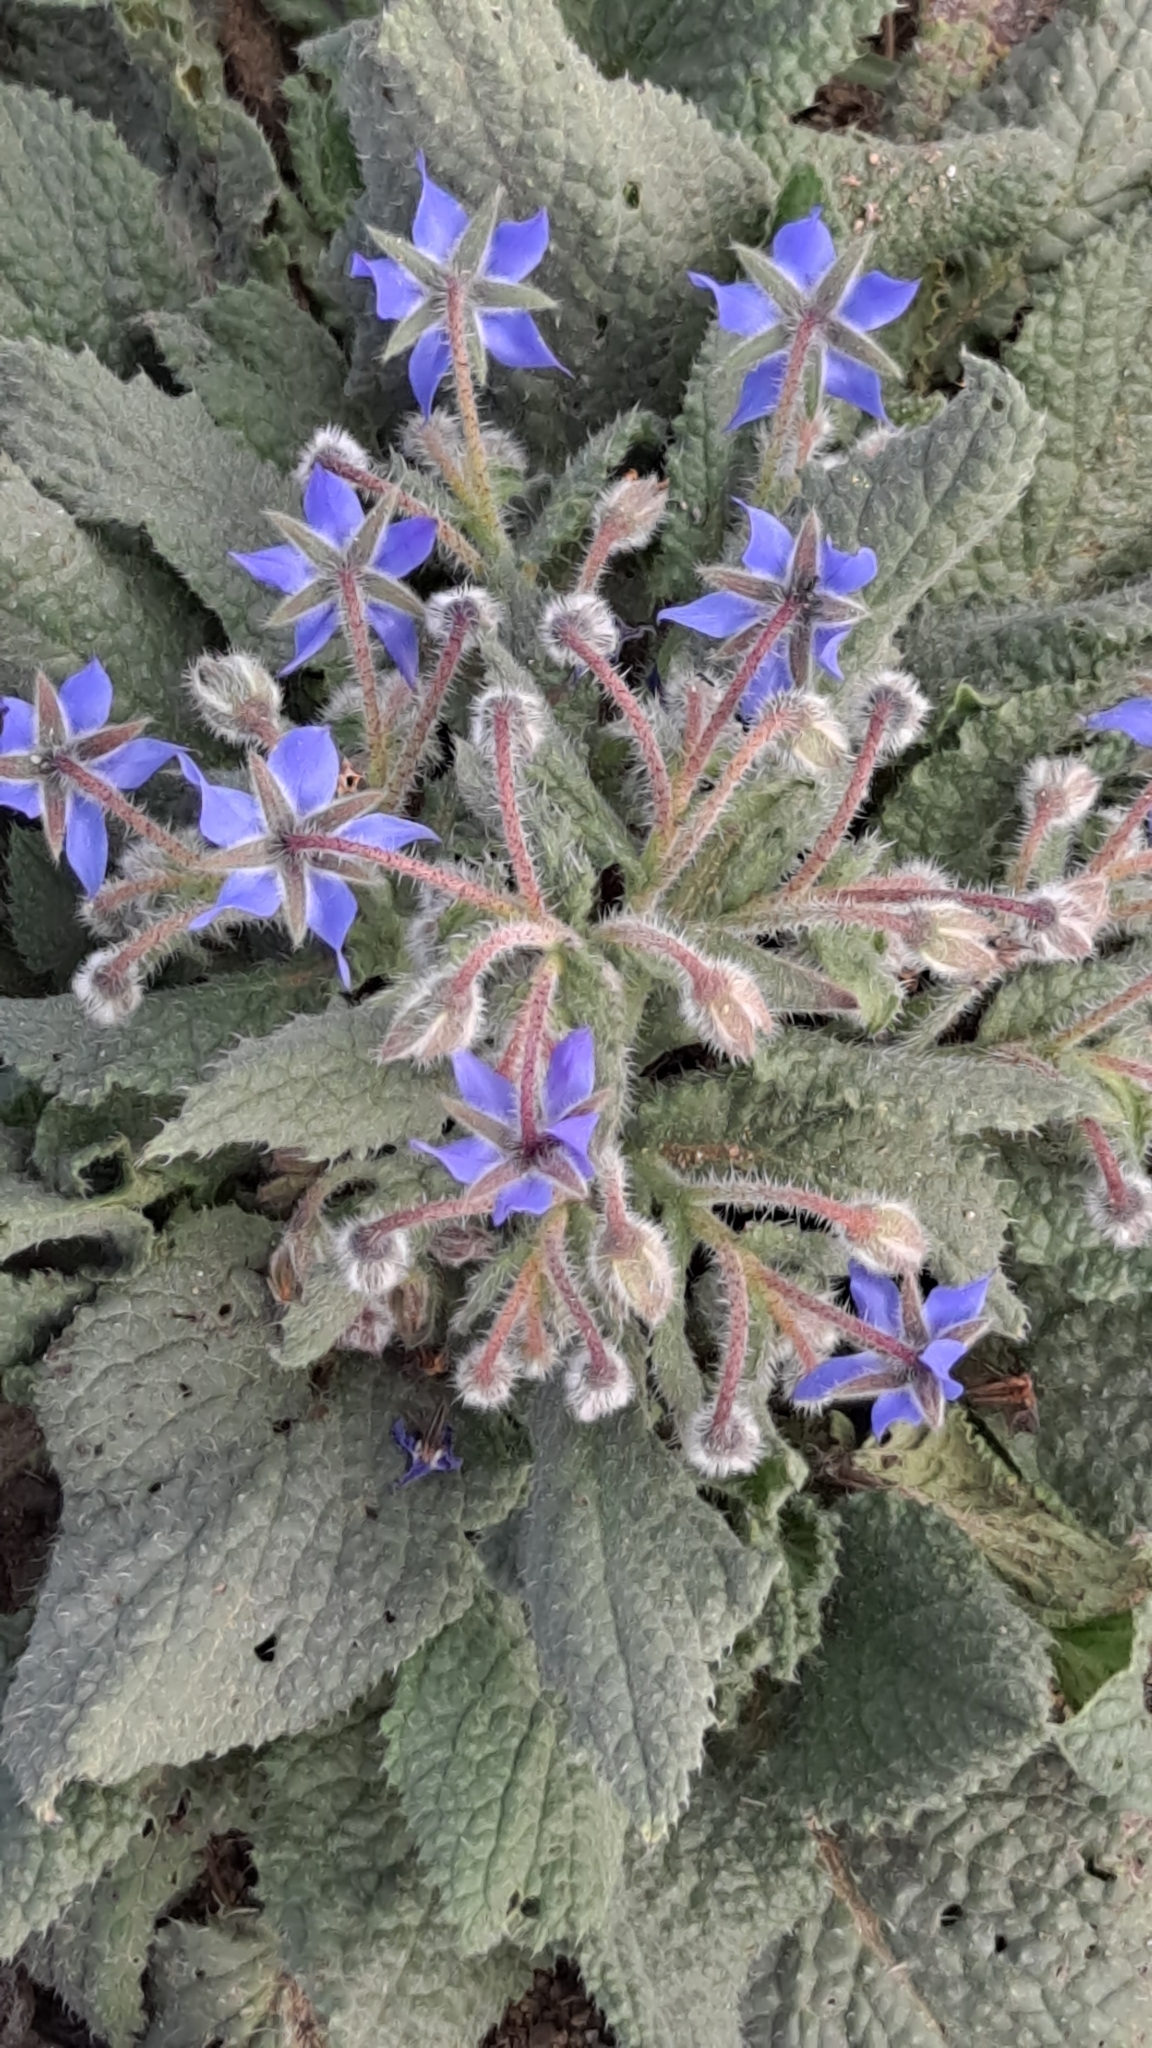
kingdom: Plantae
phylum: Tracheophyta
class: Magnoliopsida
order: Boraginales
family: Boraginaceae
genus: Borago
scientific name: Borago officinalis
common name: Borage
